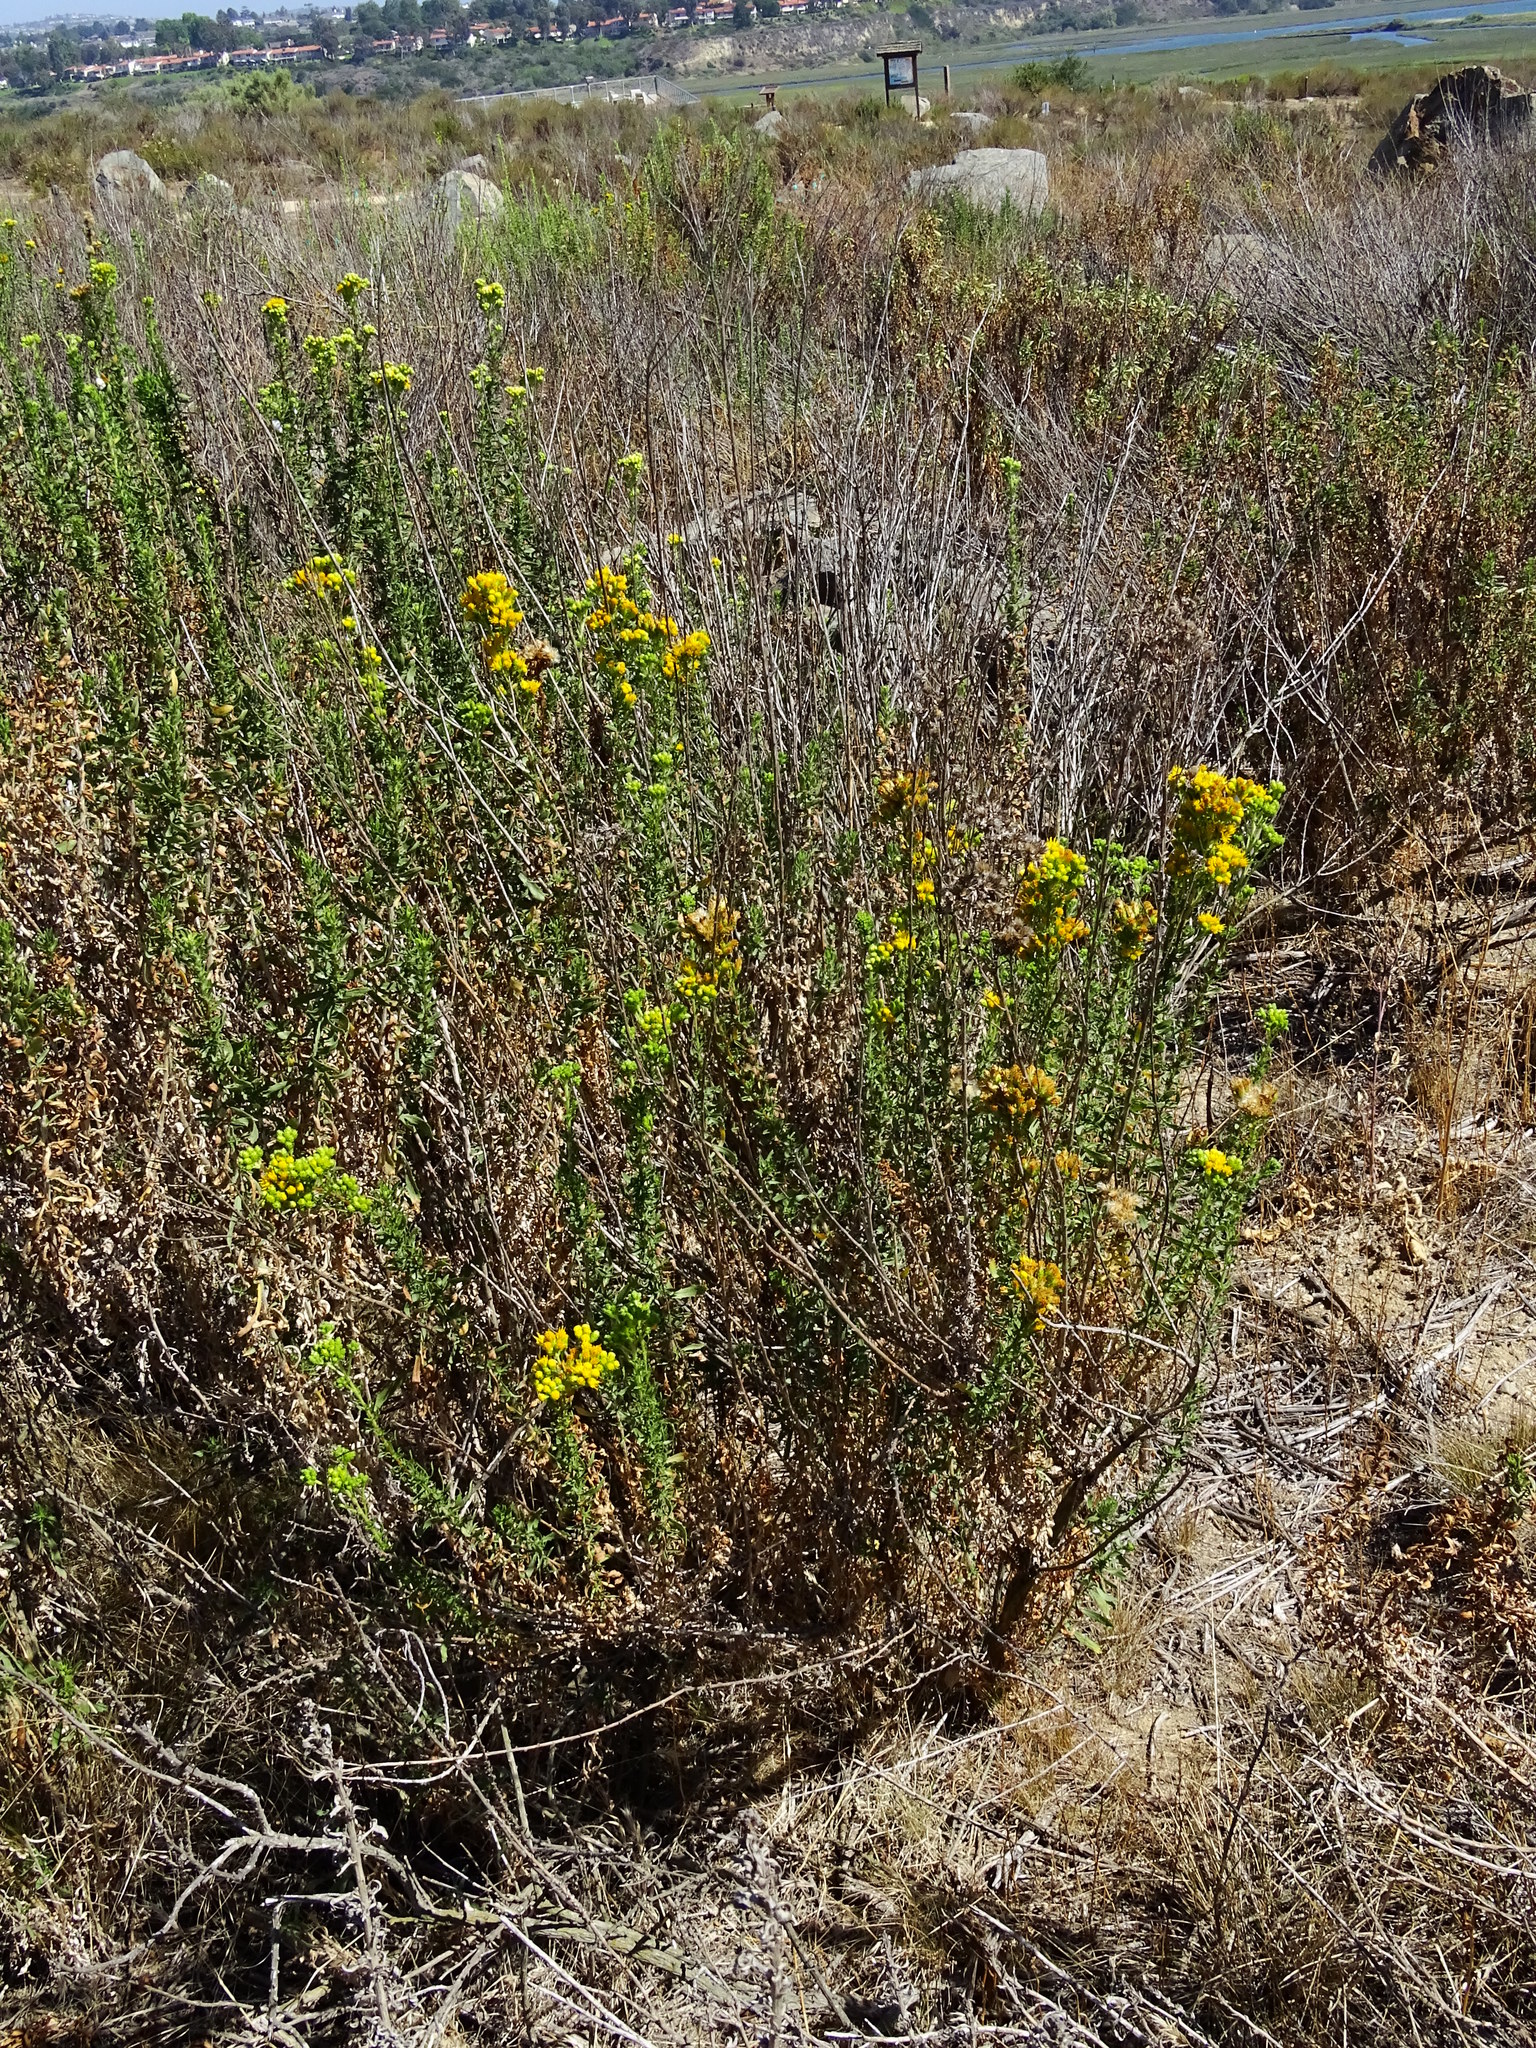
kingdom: Plantae
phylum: Tracheophyta
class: Magnoliopsida
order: Asterales
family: Asteraceae
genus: Isocoma
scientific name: Isocoma menziesii
